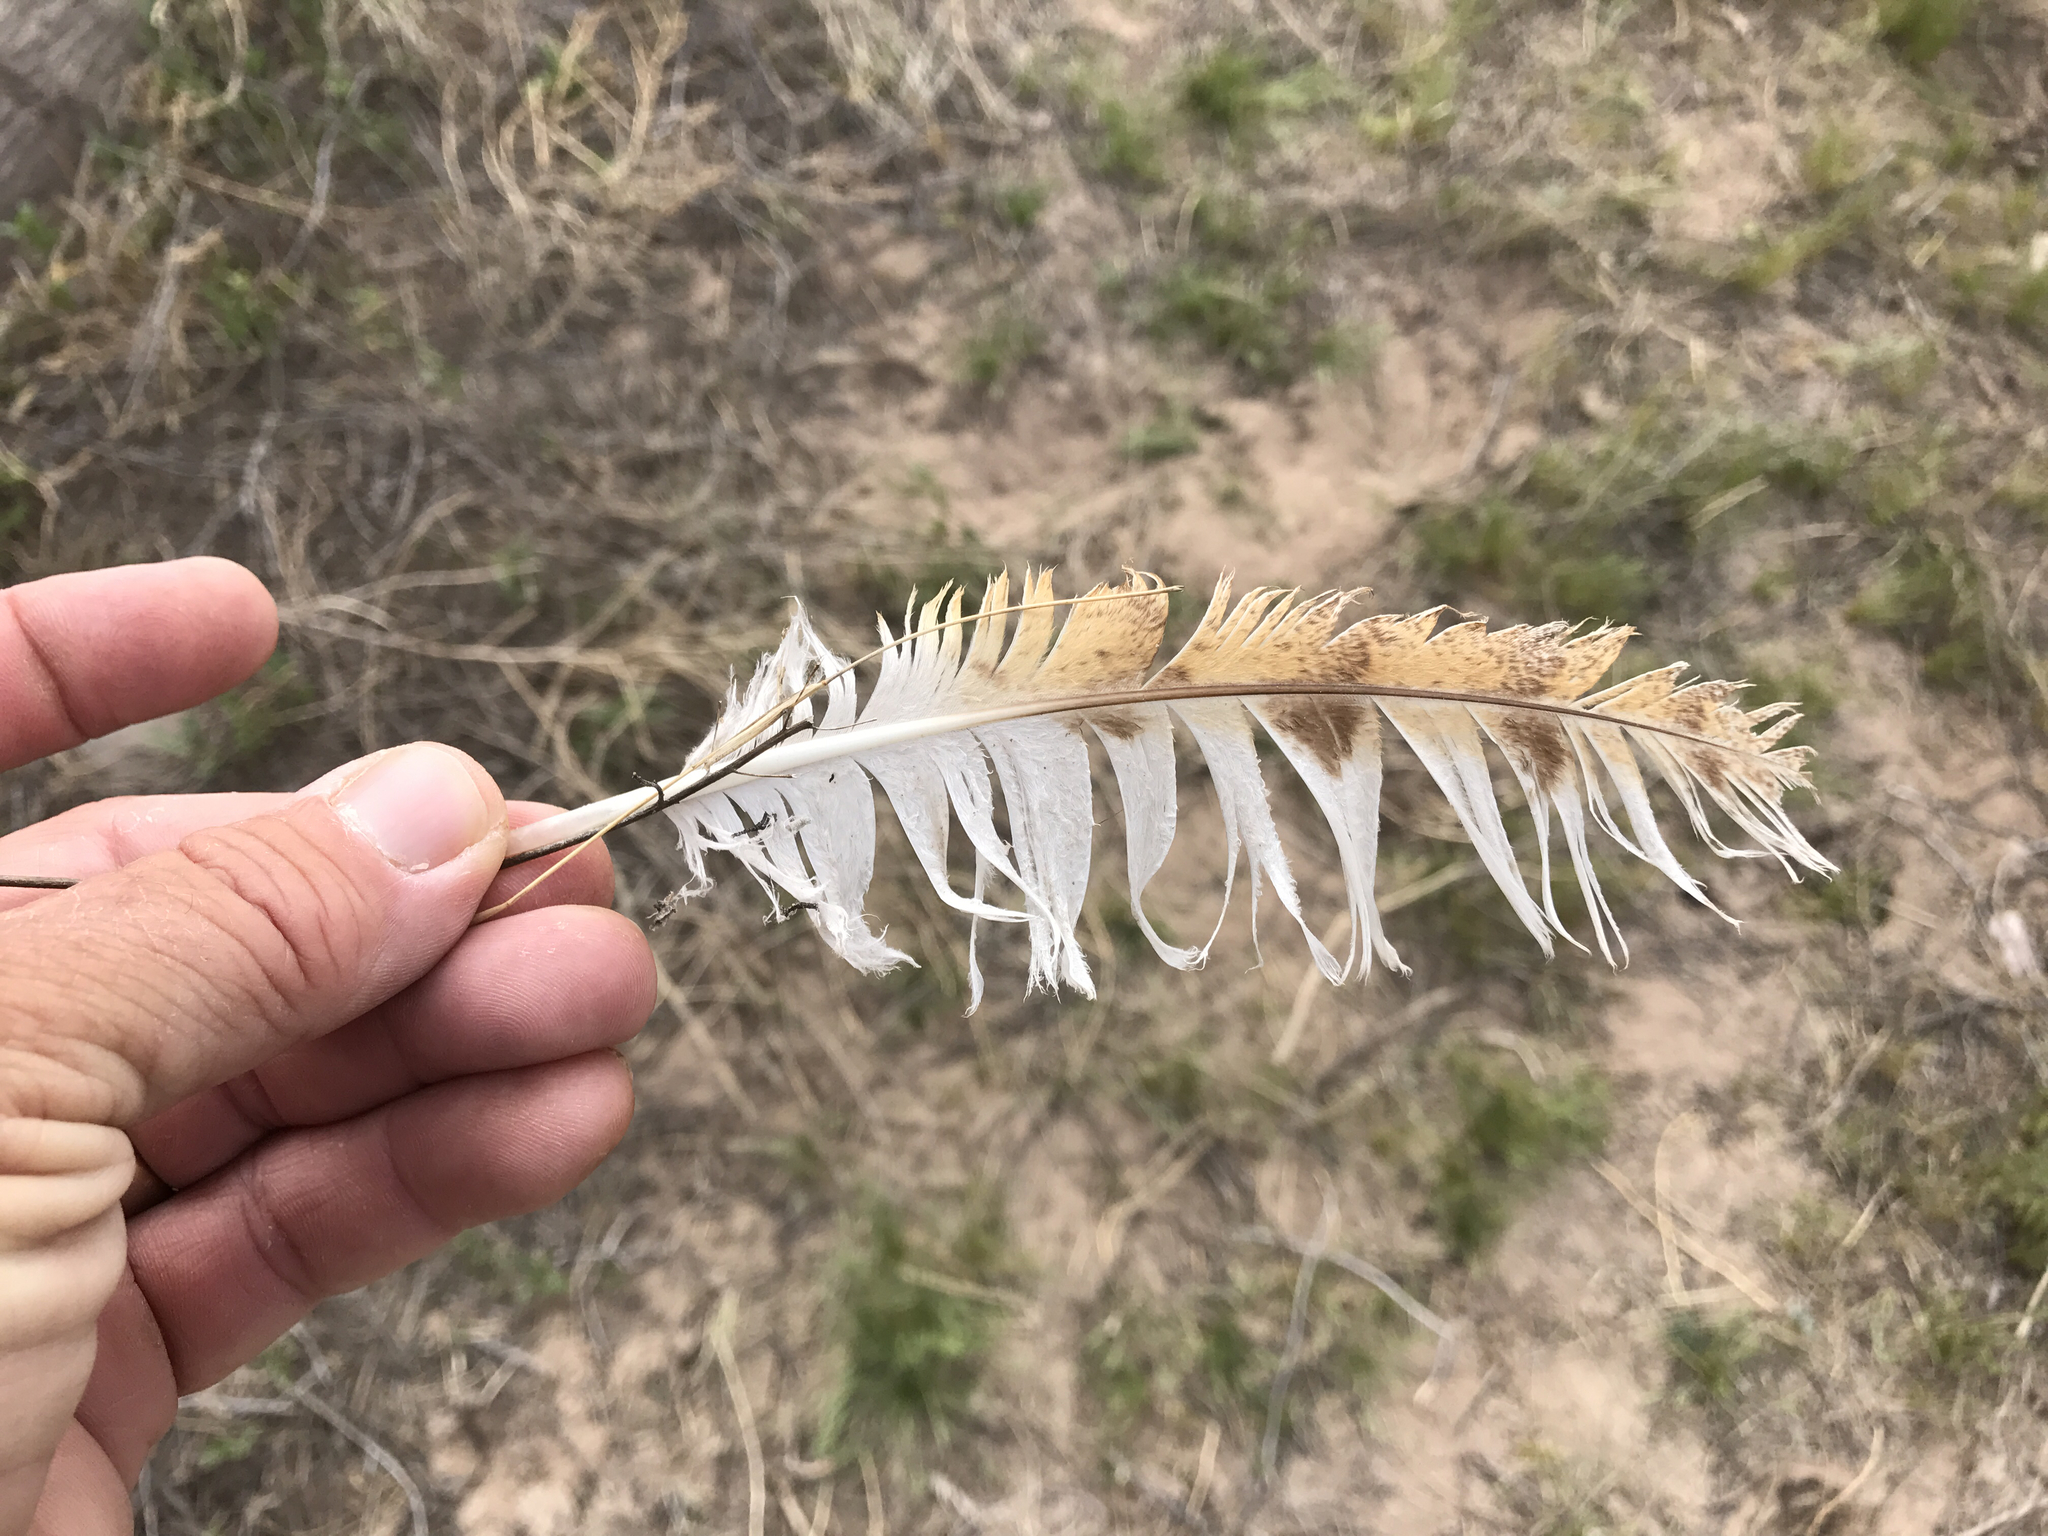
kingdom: Animalia
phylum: Chordata
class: Aves
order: Strigiformes
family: Tytonidae
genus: Tyto
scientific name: Tyto furcata
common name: American barn owl
